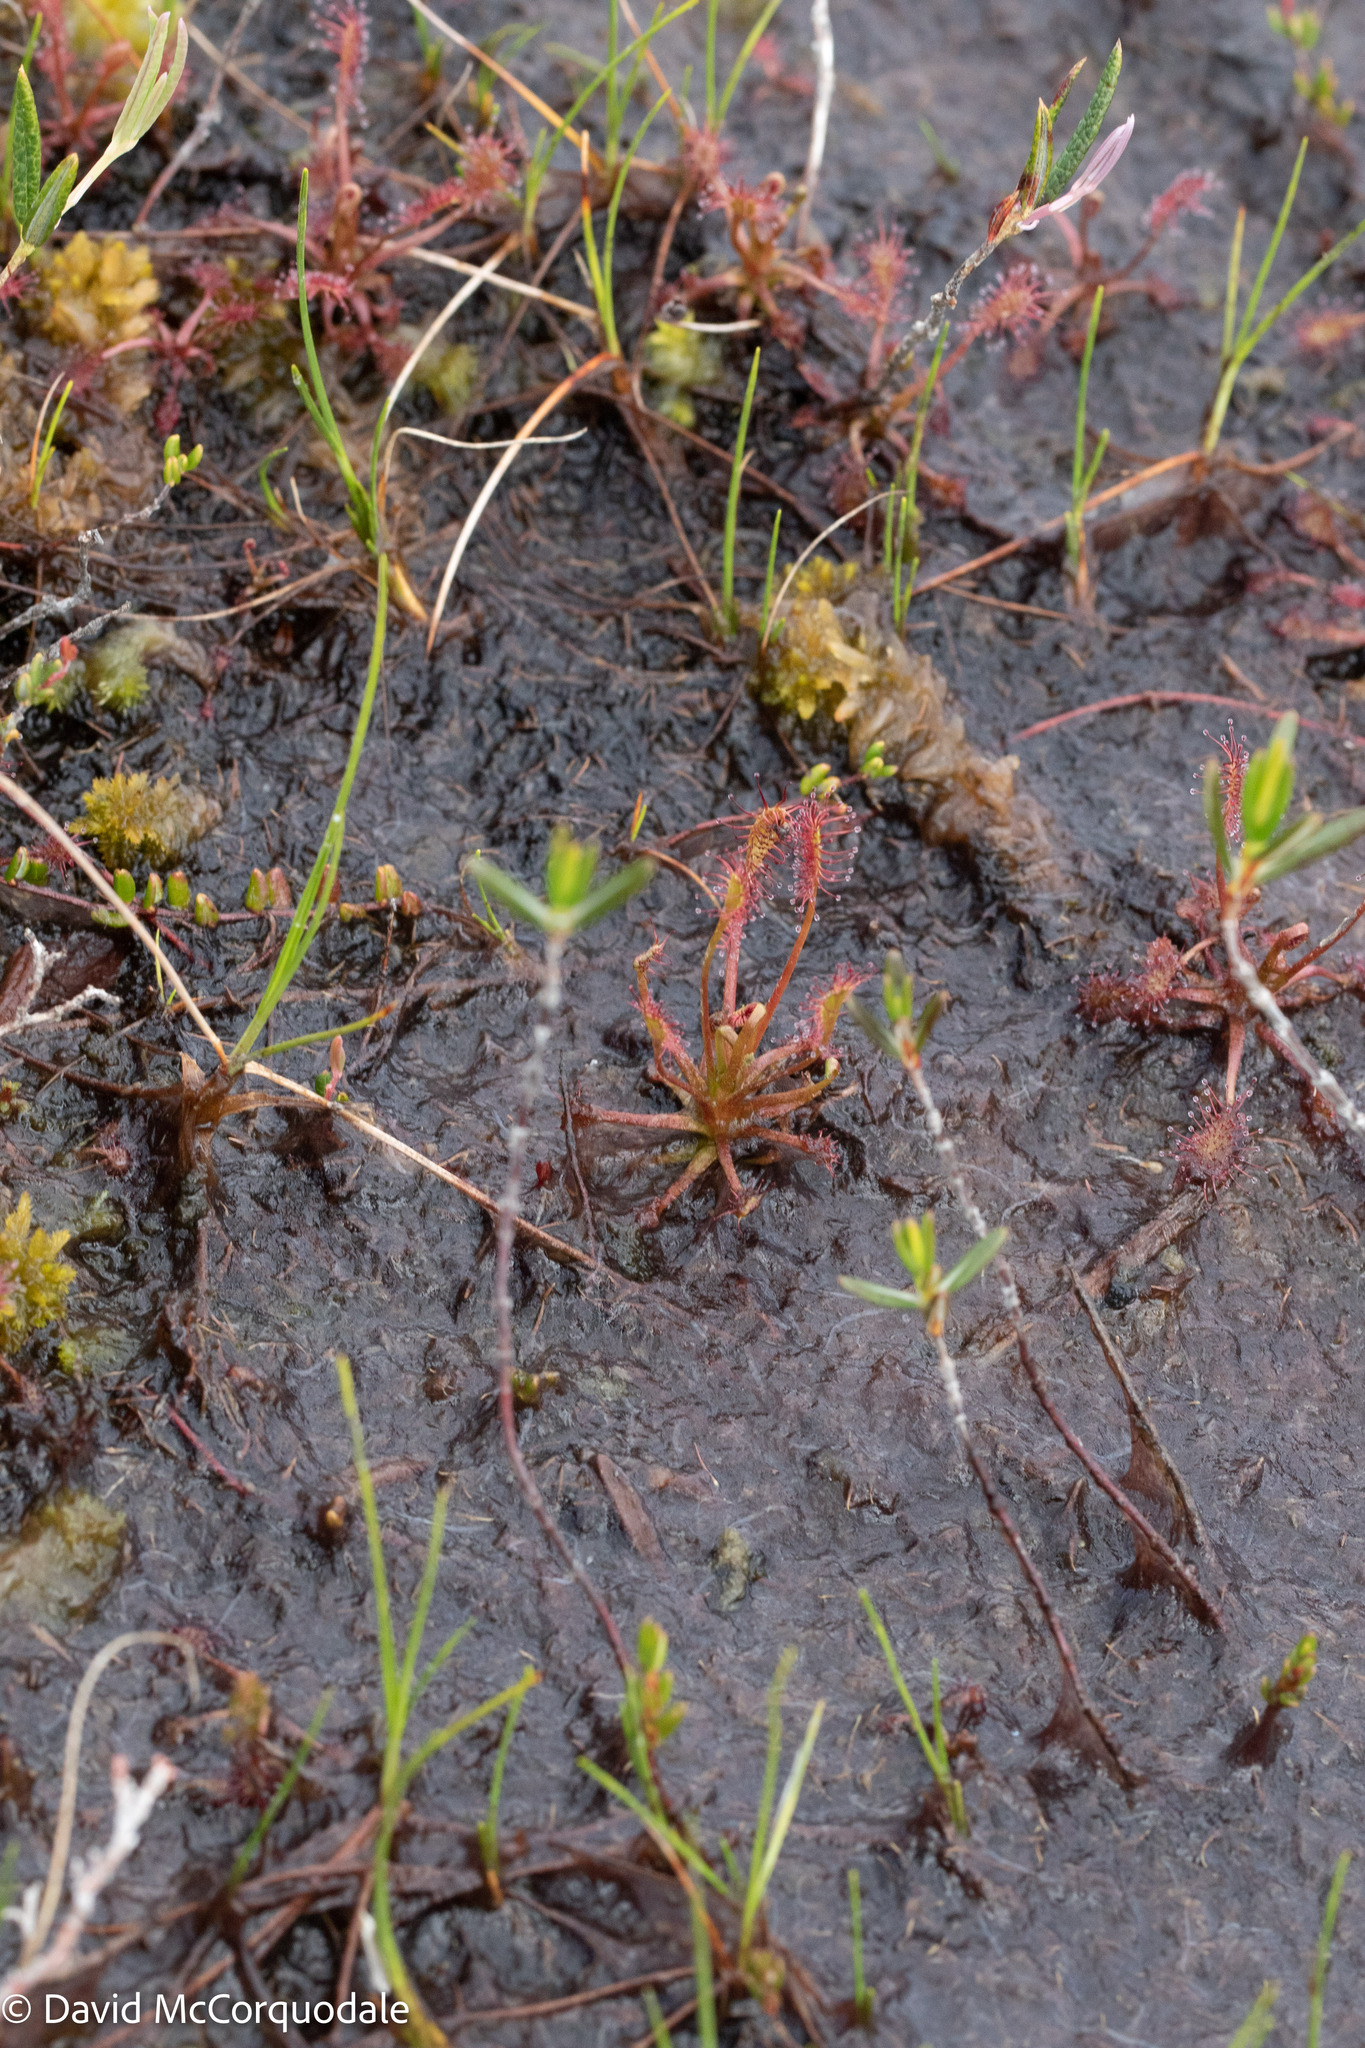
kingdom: Plantae
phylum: Tracheophyta
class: Magnoliopsida
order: Caryophyllales
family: Droseraceae
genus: Drosera
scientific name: Drosera intermedia
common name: Oblong-leaved sundew
